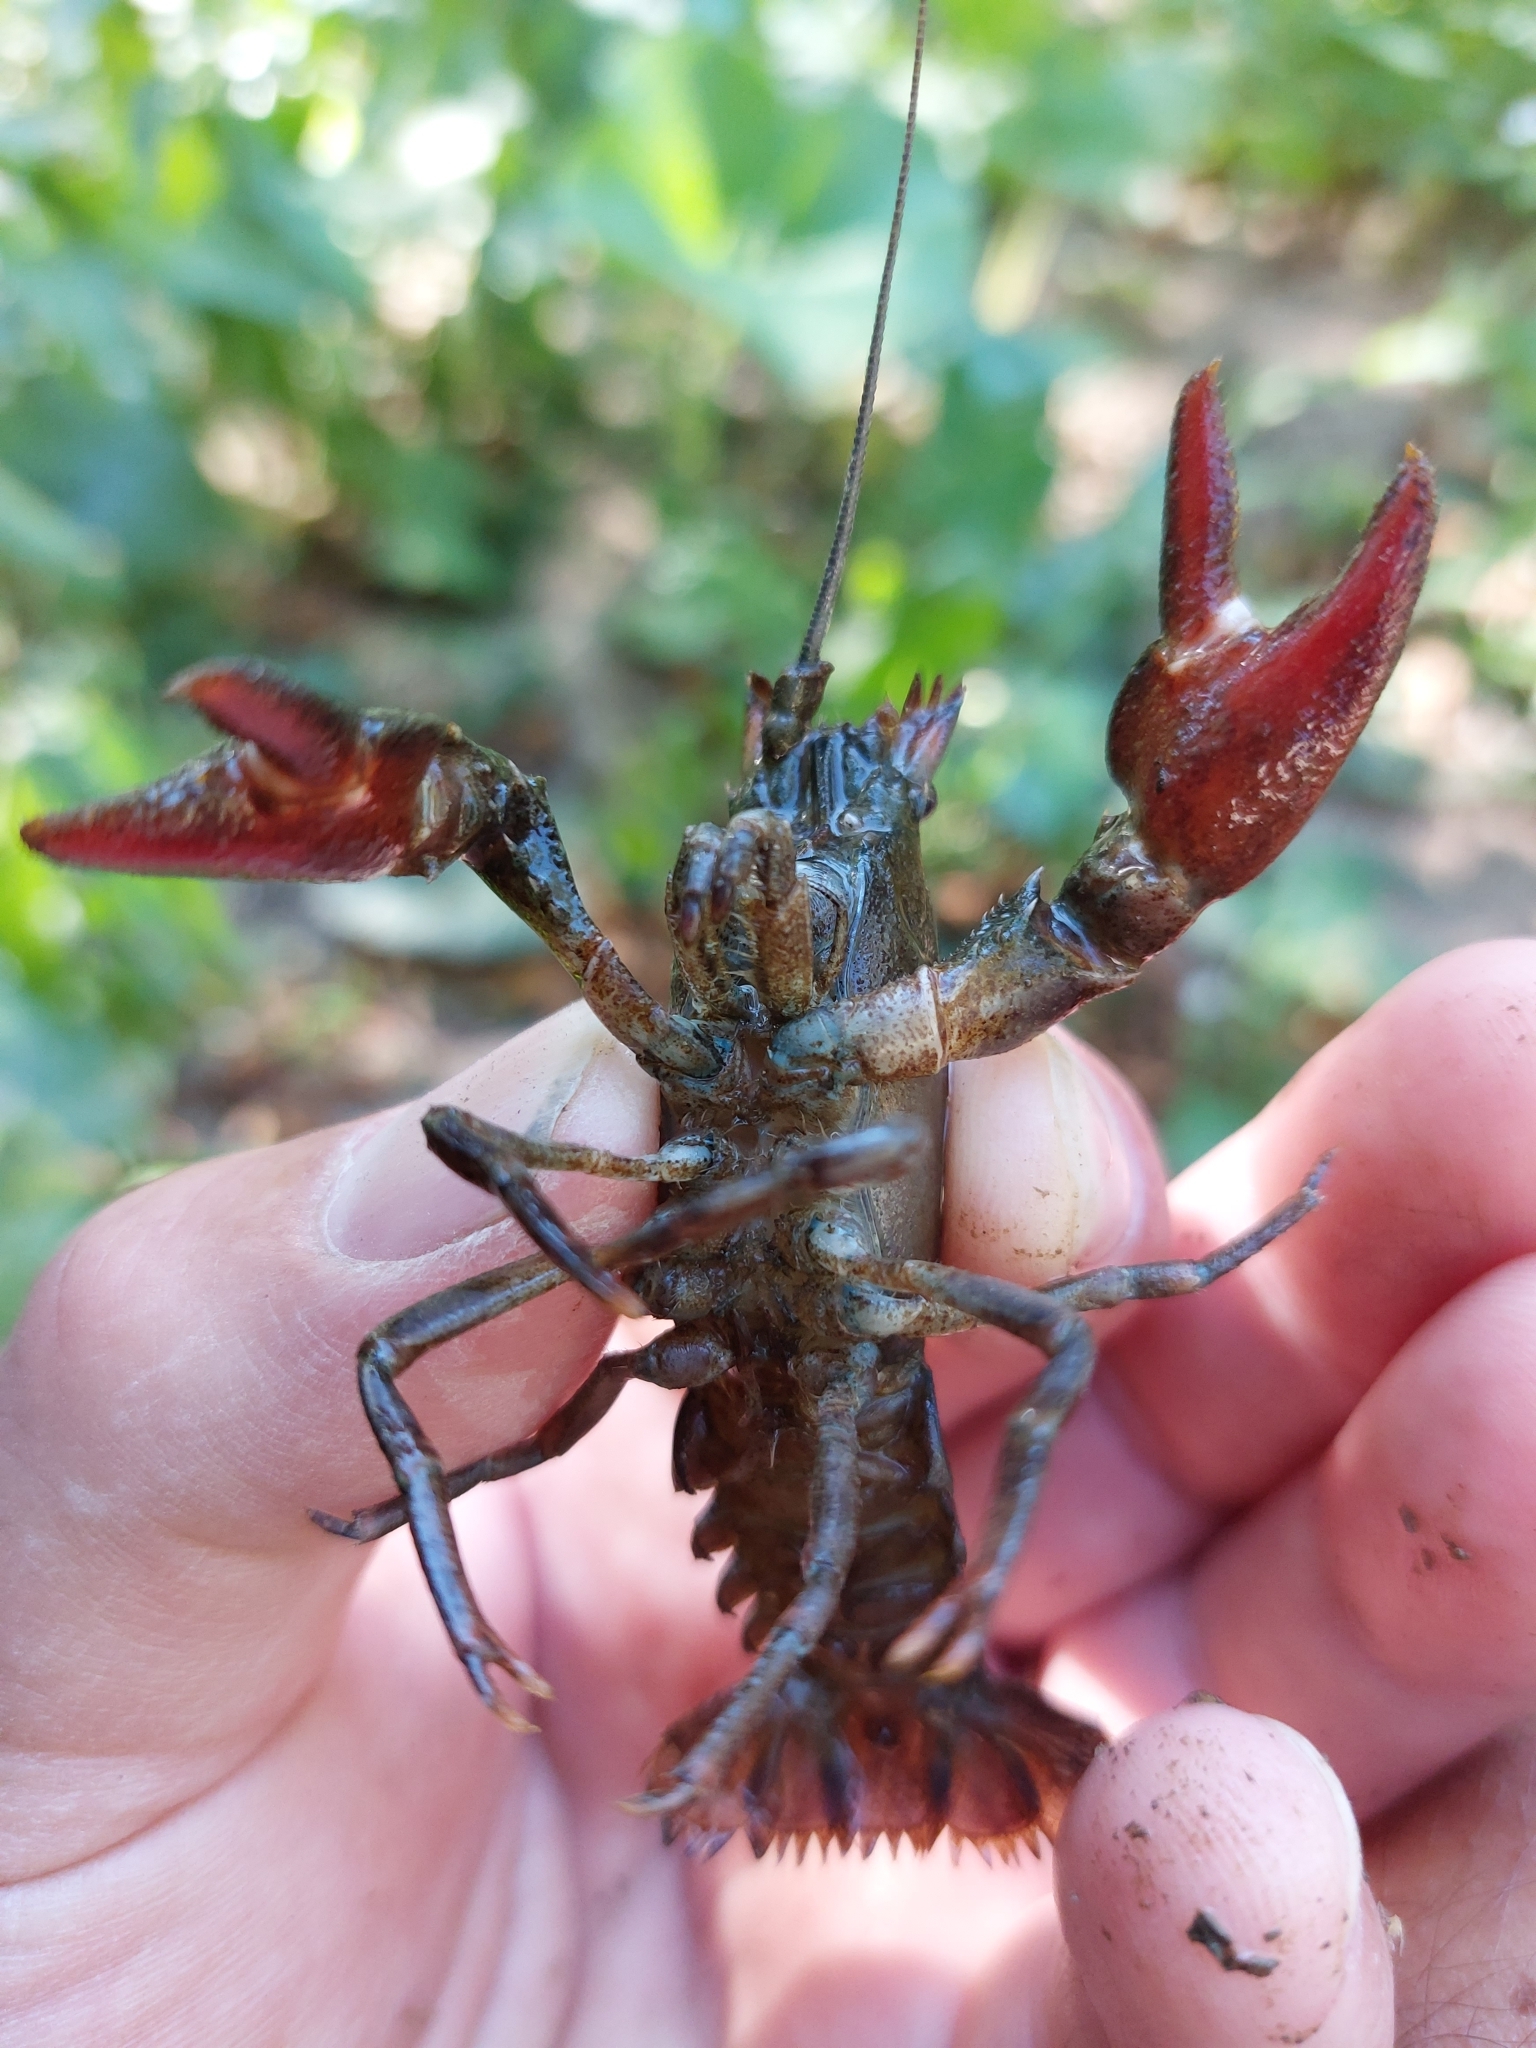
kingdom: Animalia
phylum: Arthropoda
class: Malacostraca
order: Decapoda
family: Astacidae
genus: Pacifastacus
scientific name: Pacifastacus leniusculus
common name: Signal crayfish
